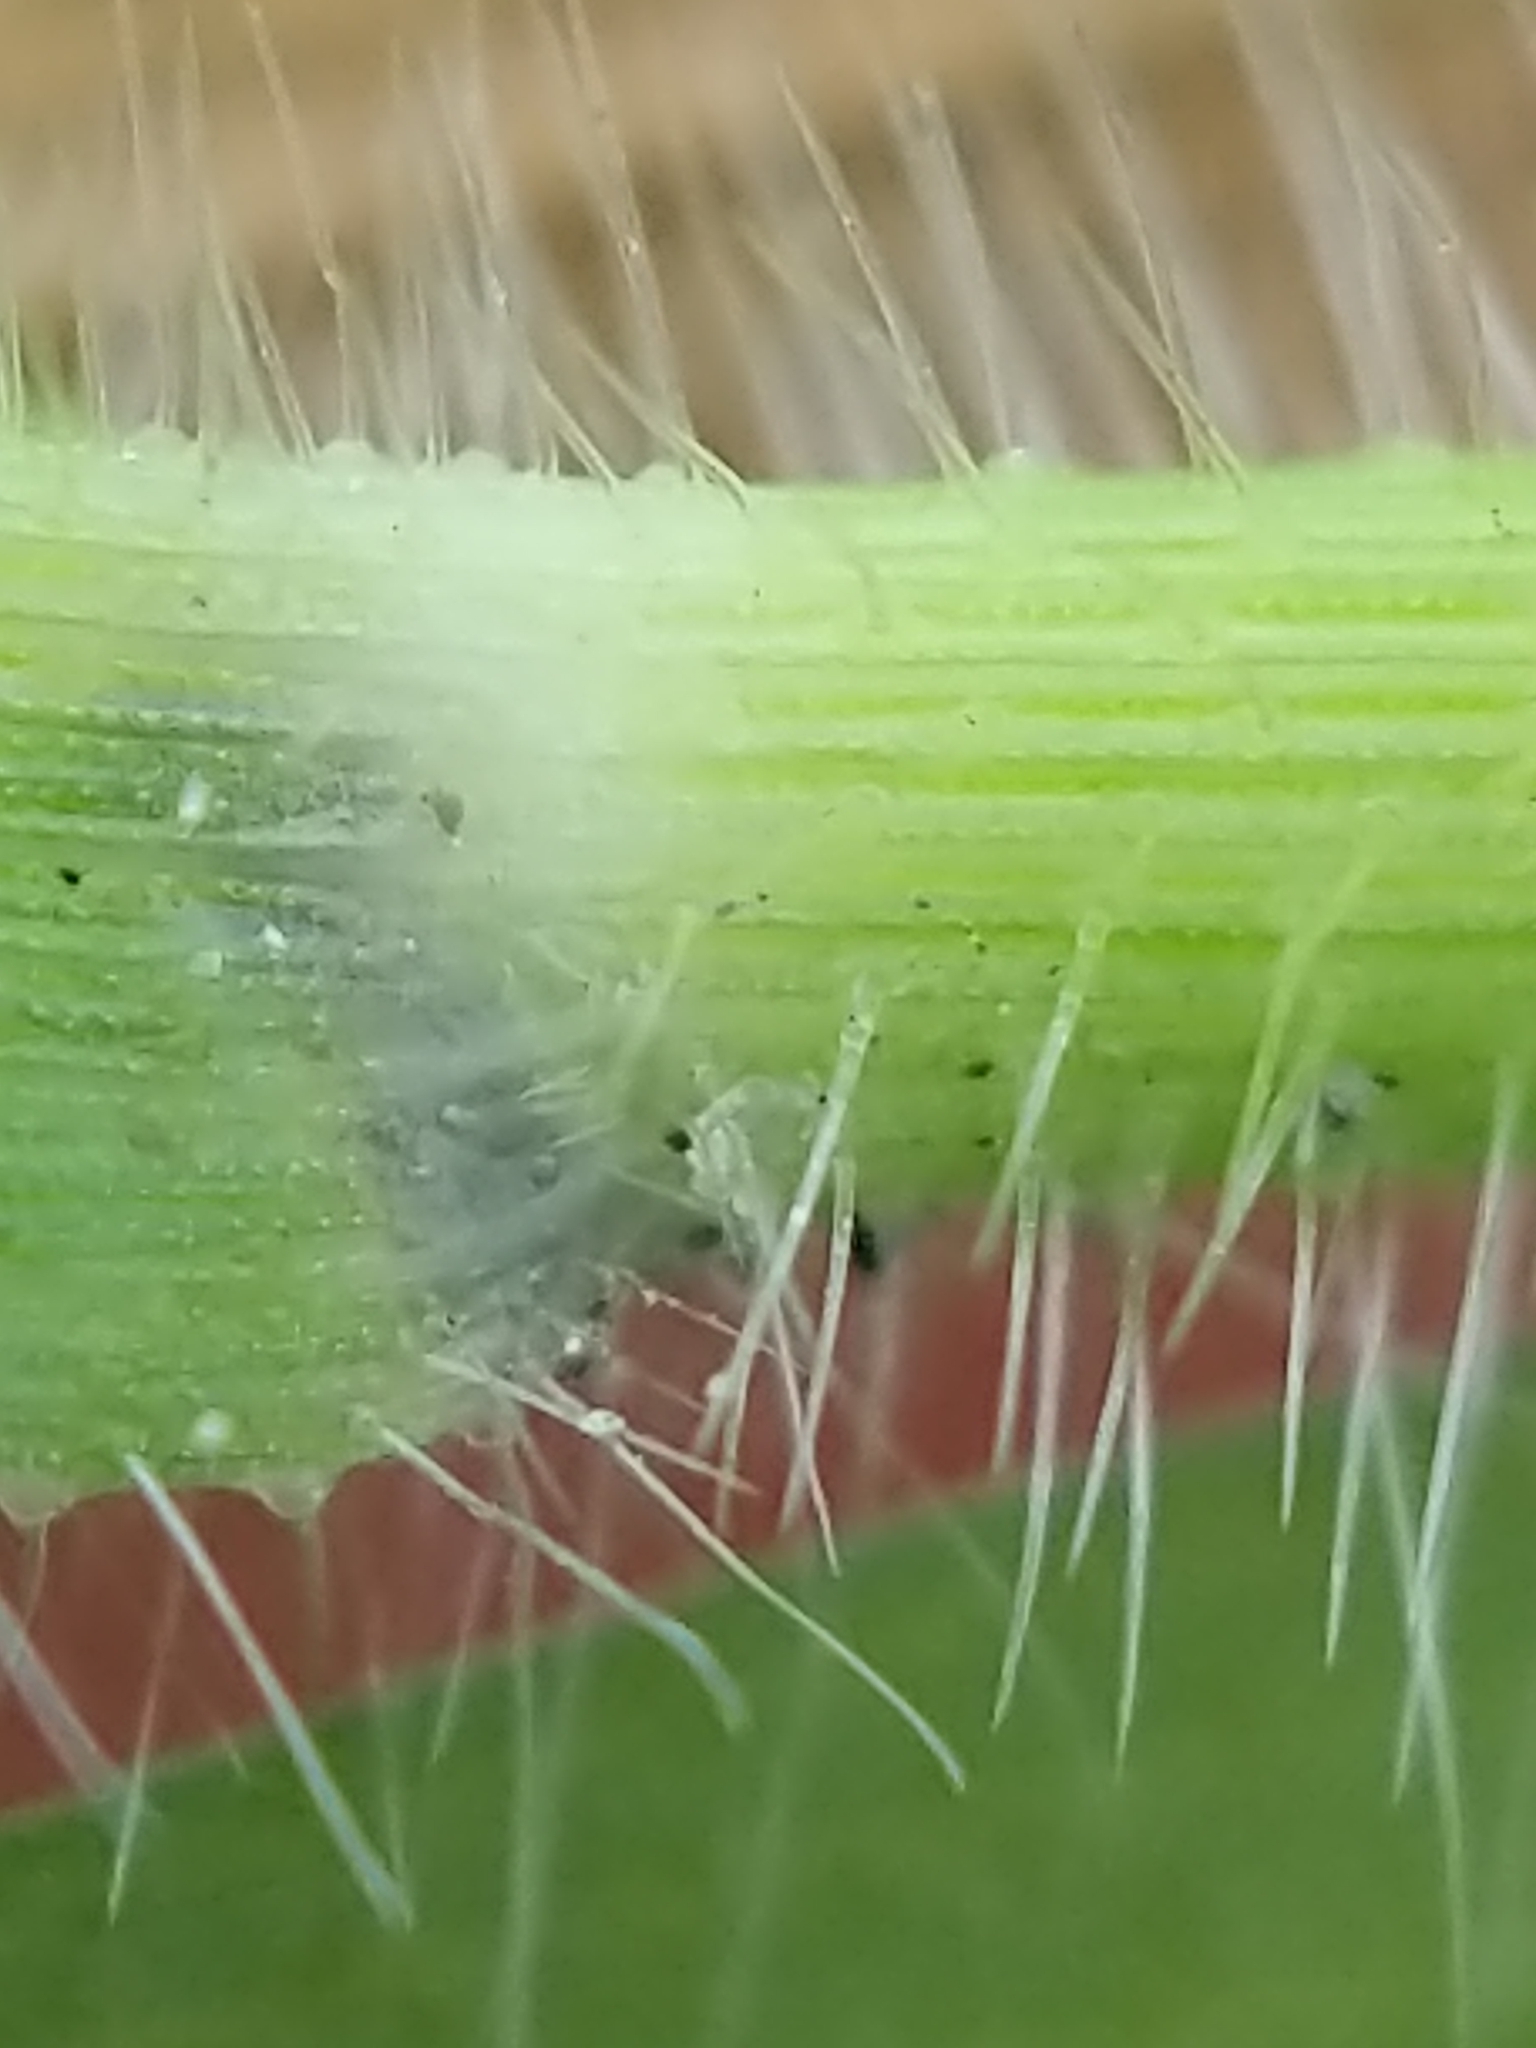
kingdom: Plantae
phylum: Tracheophyta
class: Liliopsida
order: Poales
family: Poaceae
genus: Panicum
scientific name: Panicum capillare
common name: Witch-grass
